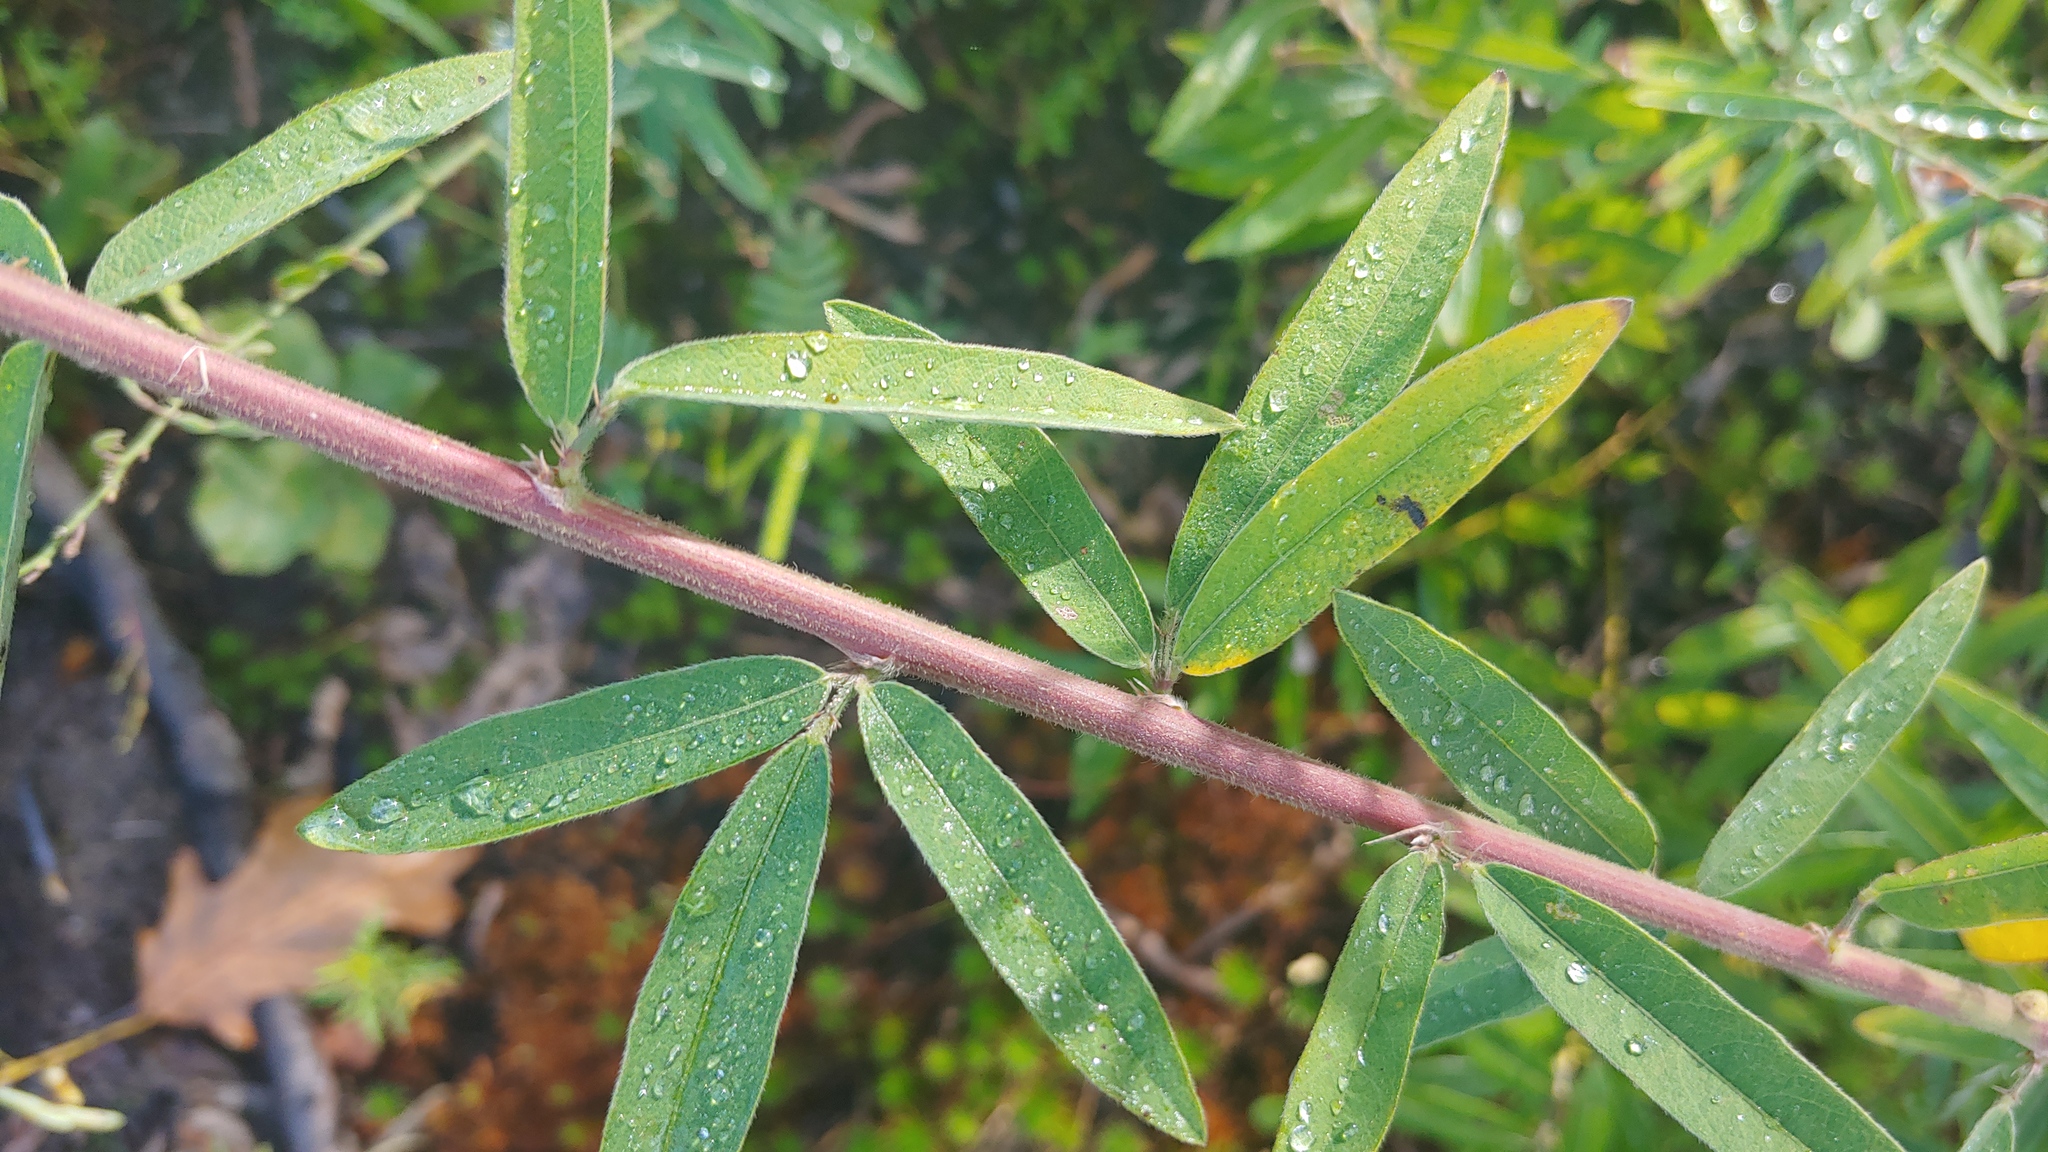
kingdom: Plantae
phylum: Tracheophyta
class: Magnoliopsida
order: Fabales
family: Fabaceae
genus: Desmodium
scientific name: Desmodium sessilifolium
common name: Sessile tick-clover
